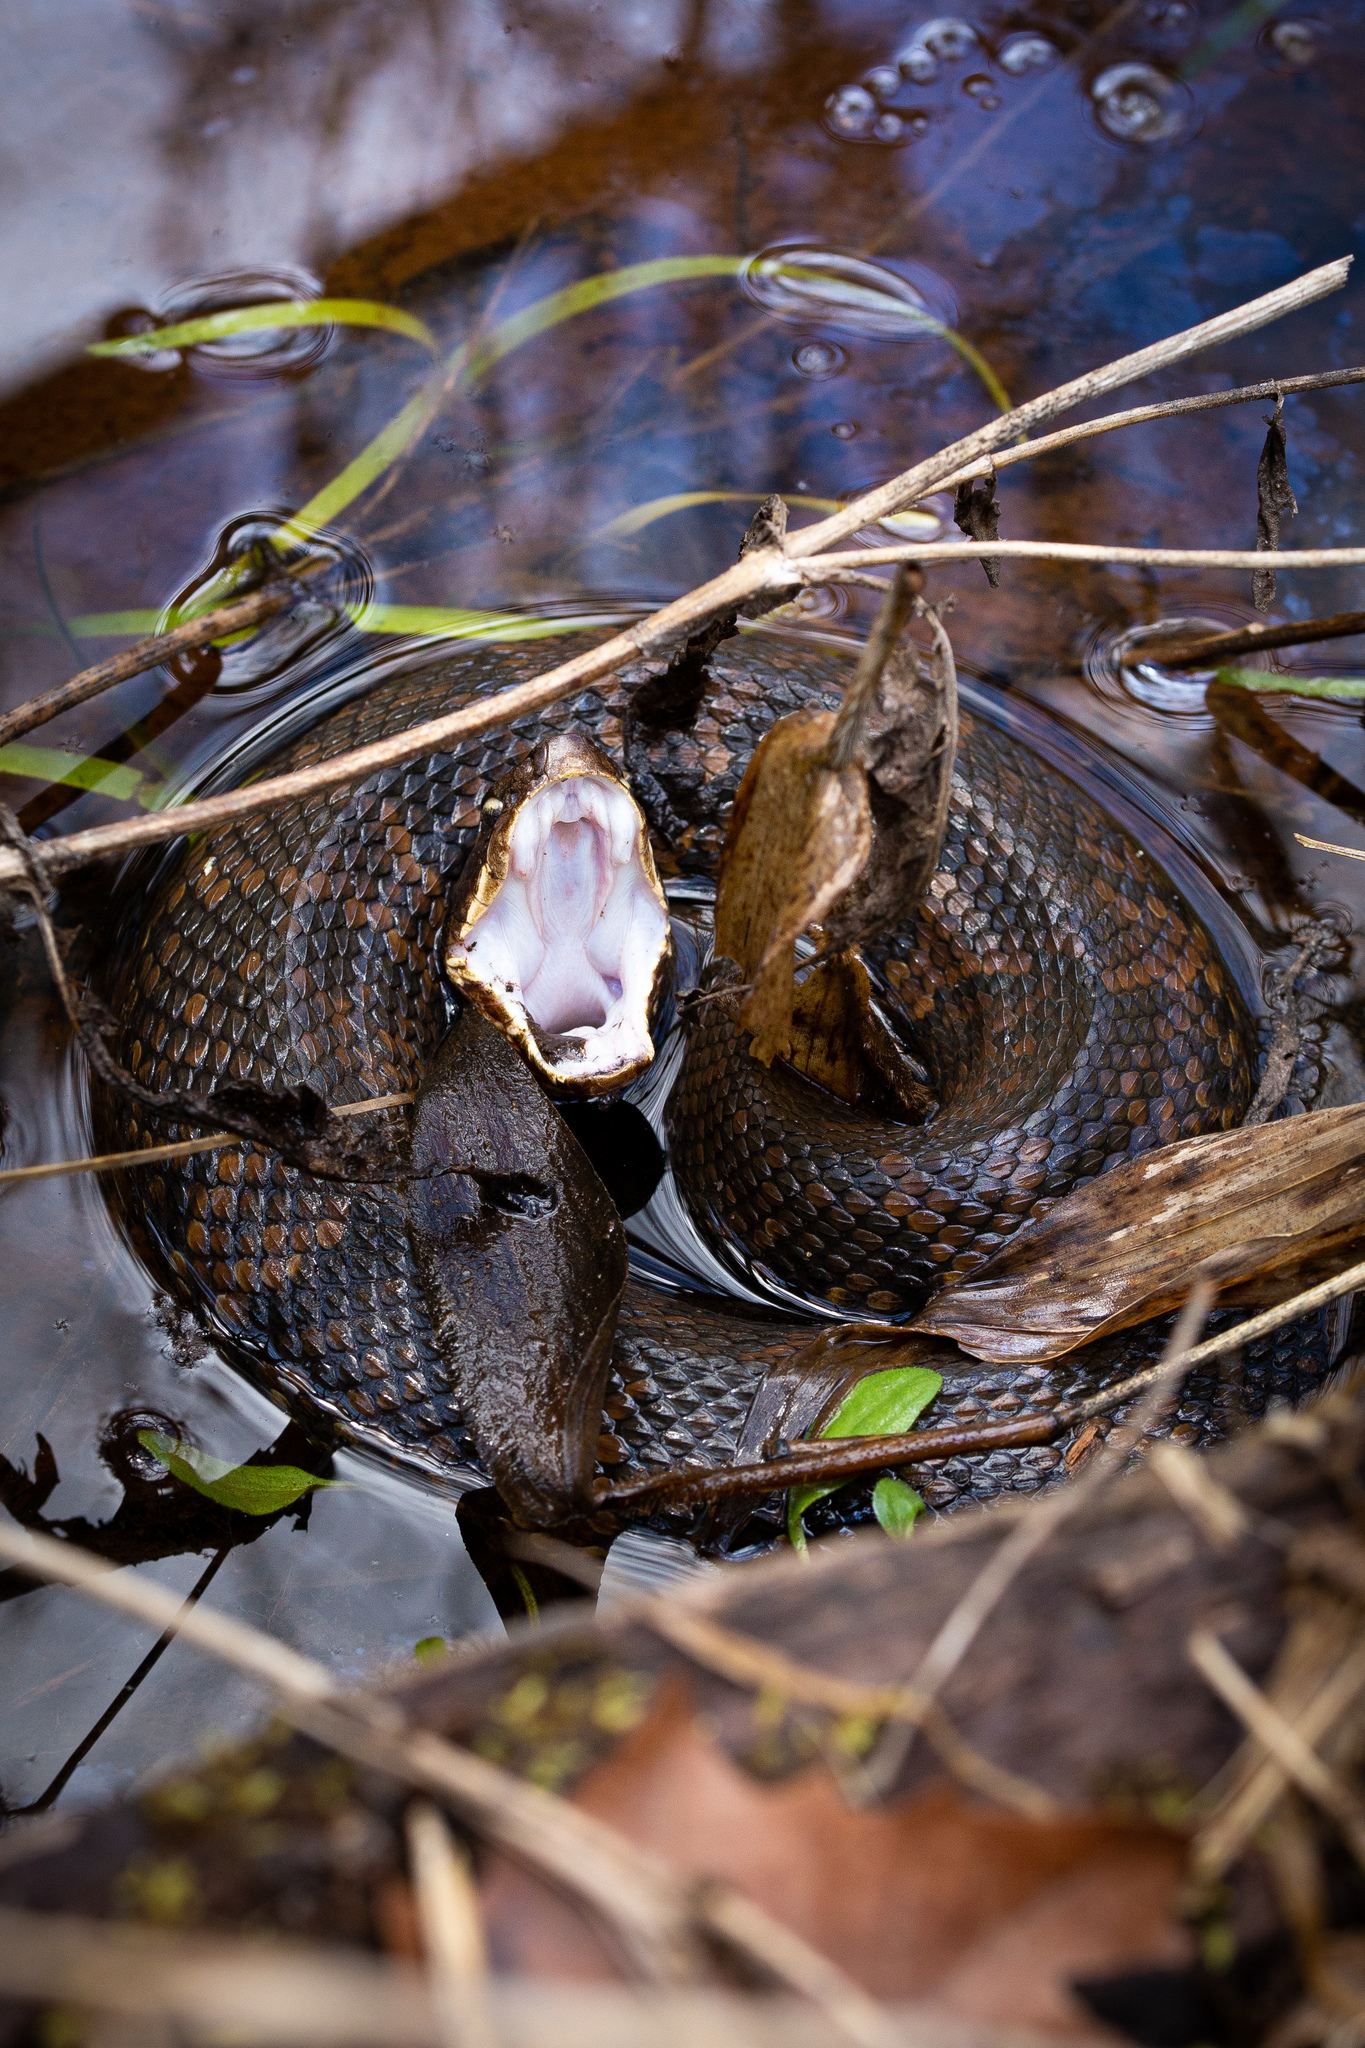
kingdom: Animalia
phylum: Chordata
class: Squamata
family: Viperidae
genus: Agkistrodon
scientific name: Agkistrodon piscivorus
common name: Cottonmouth
